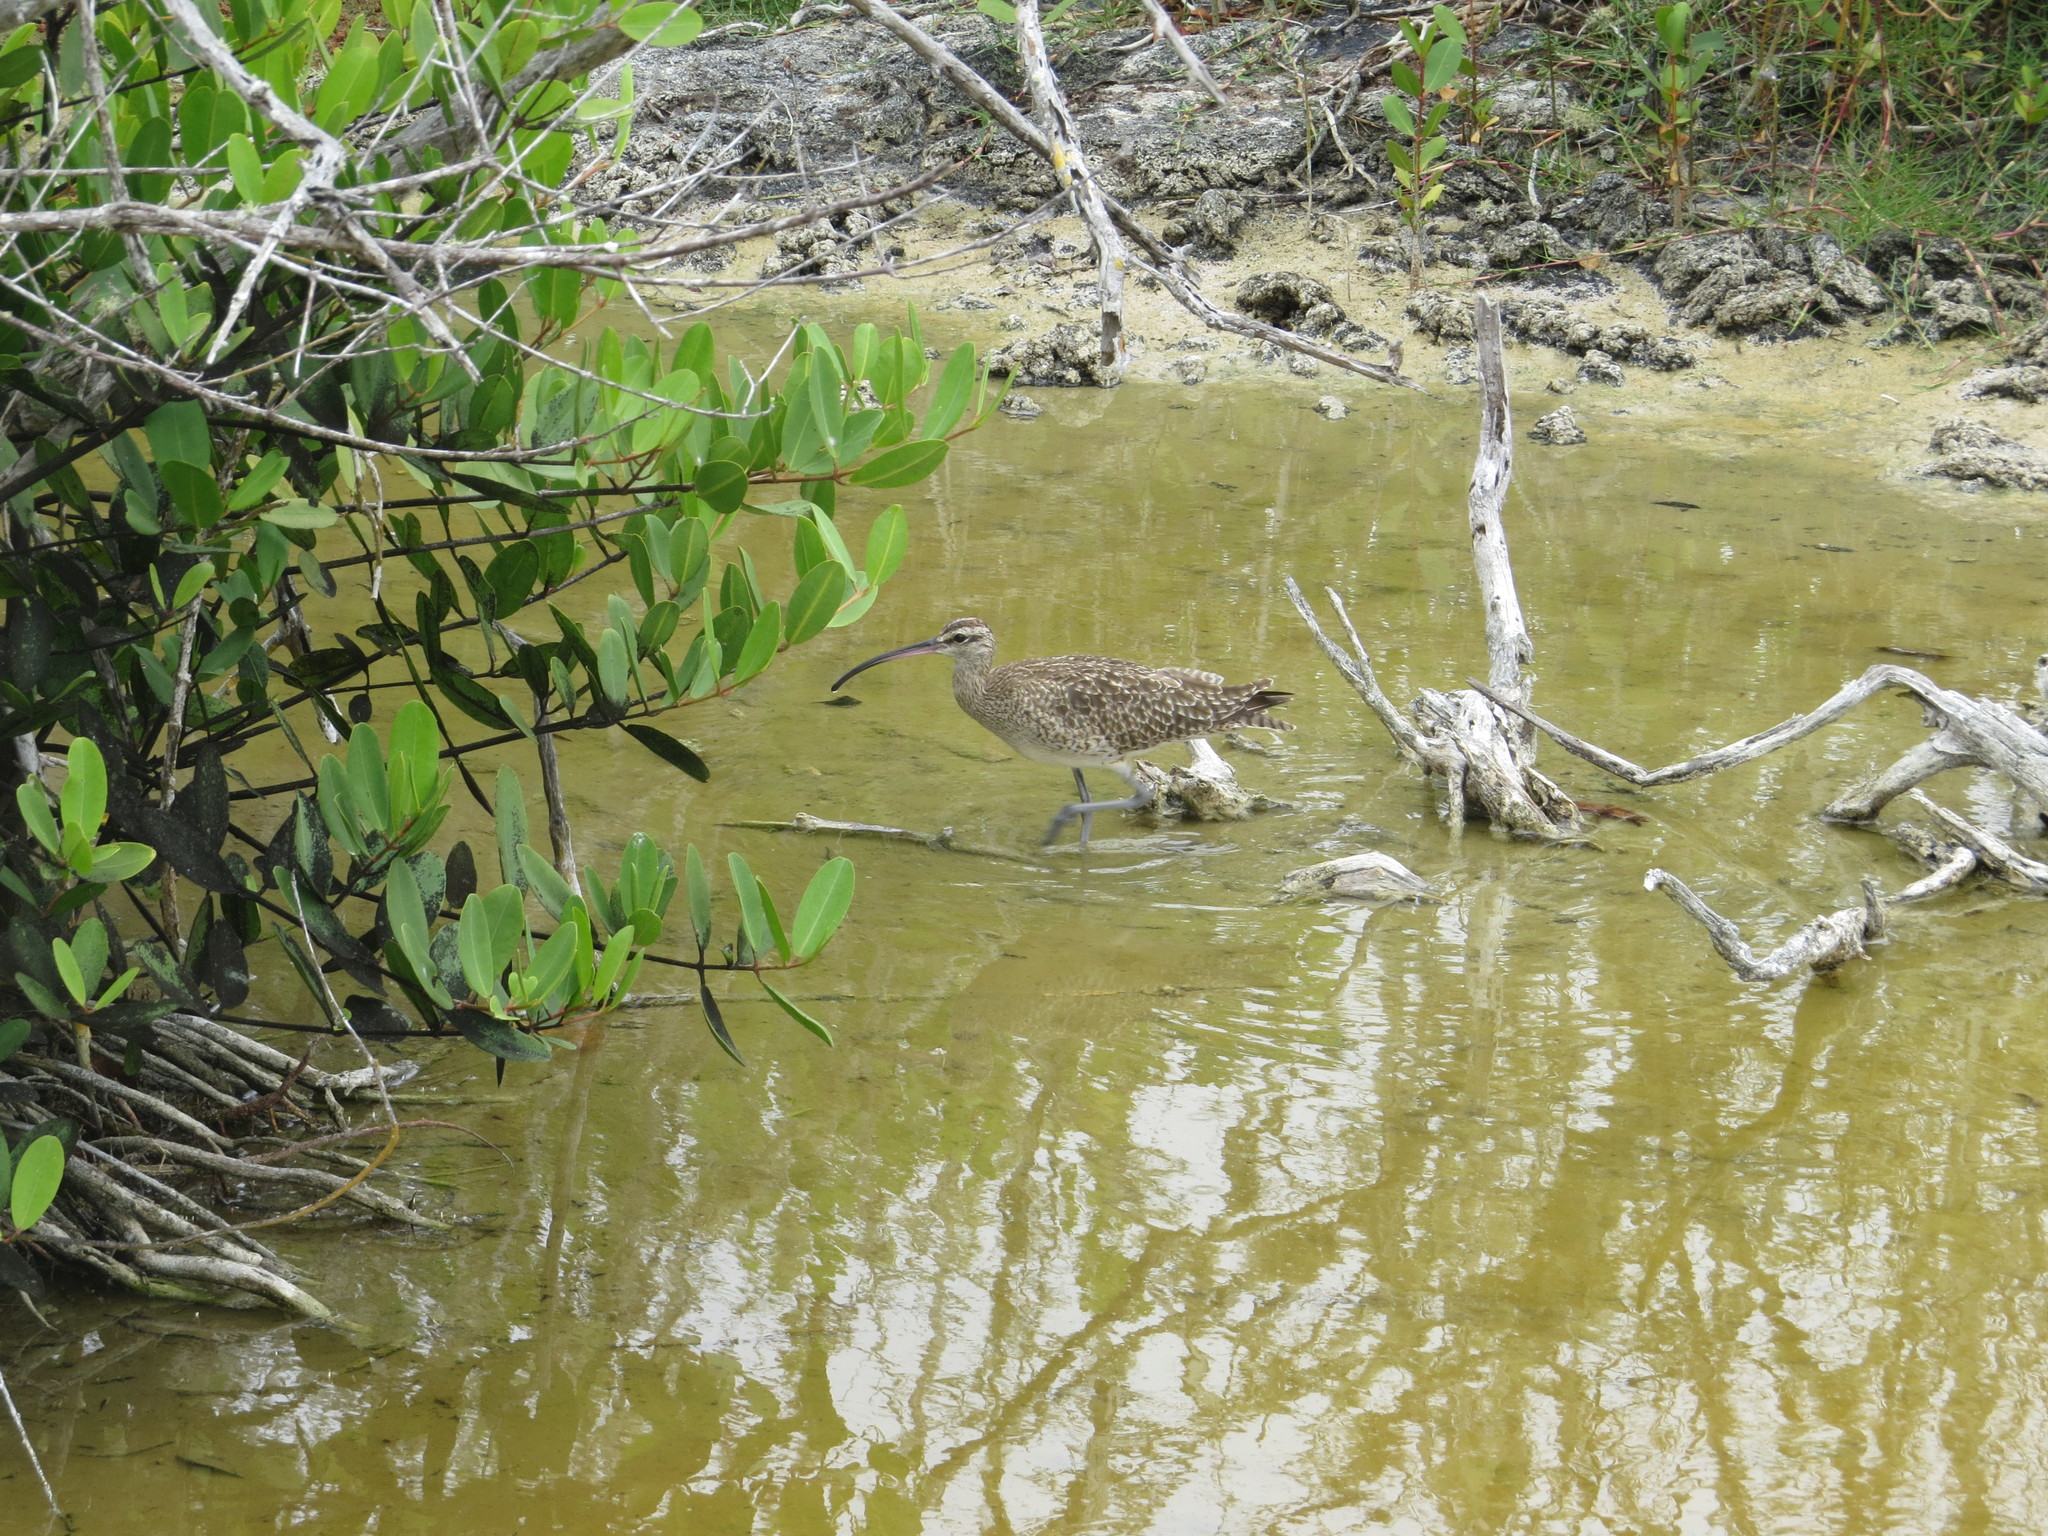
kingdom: Animalia
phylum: Chordata
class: Aves
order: Charadriiformes
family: Scolopacidae
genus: Numenius
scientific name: Numenius phaeopus
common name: Whimbrel
